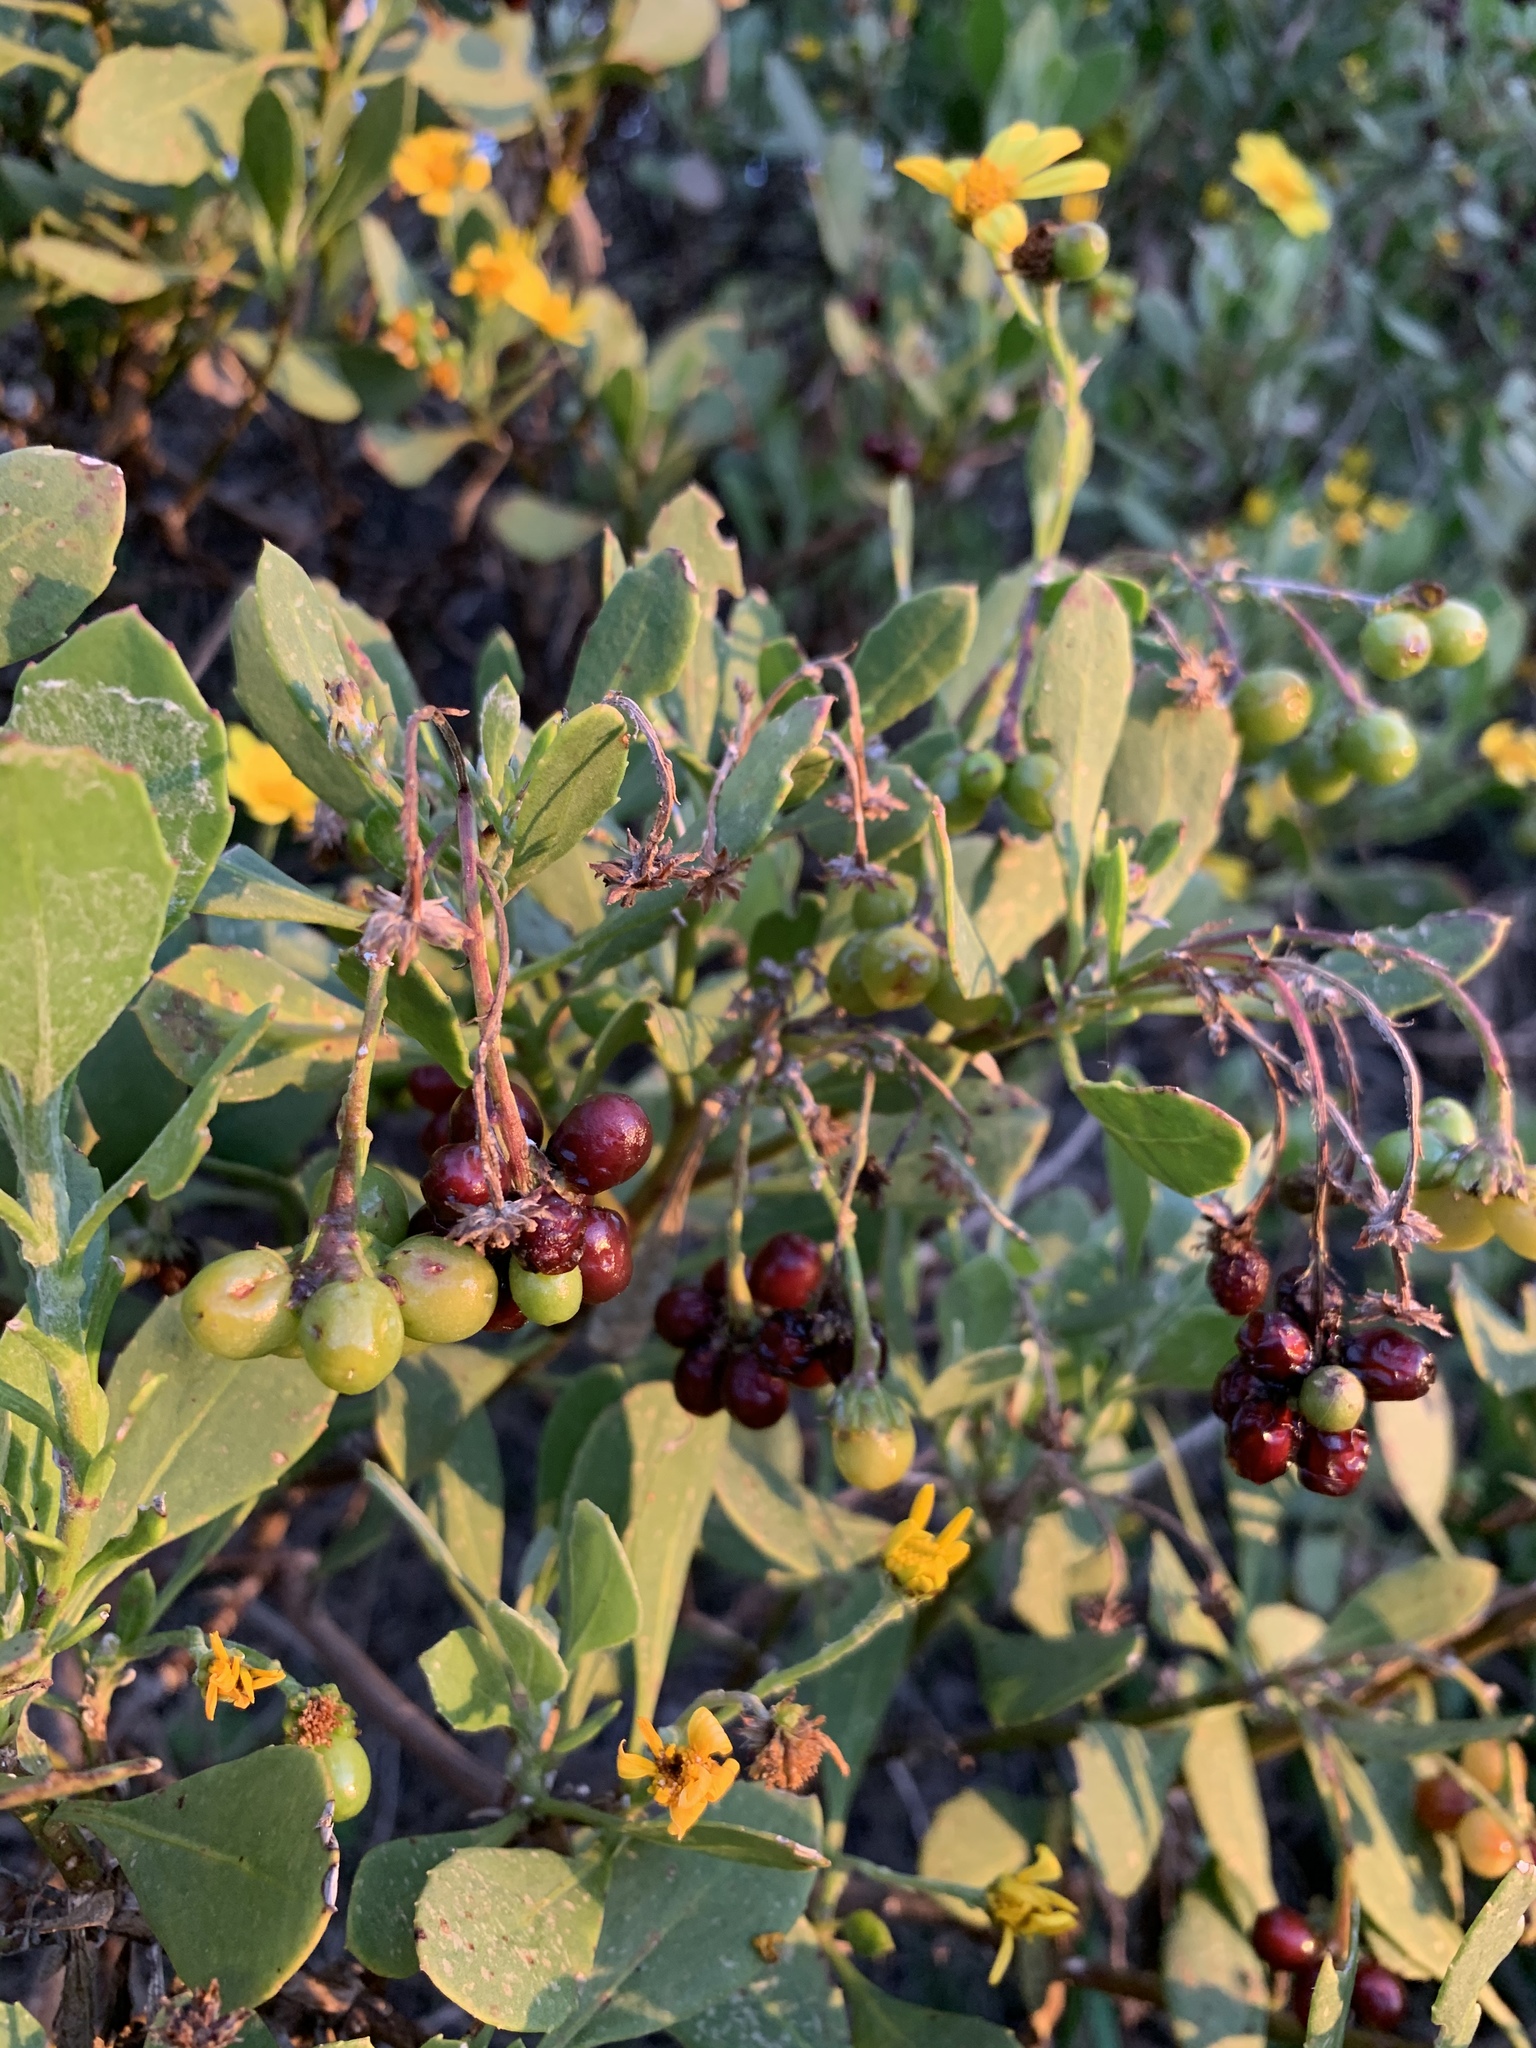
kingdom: Plantae
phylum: Tracheophyta
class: Magnoliopsida
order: Asterales
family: Asteraceae
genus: Osteospermum
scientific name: Osteospermum moniliferum
